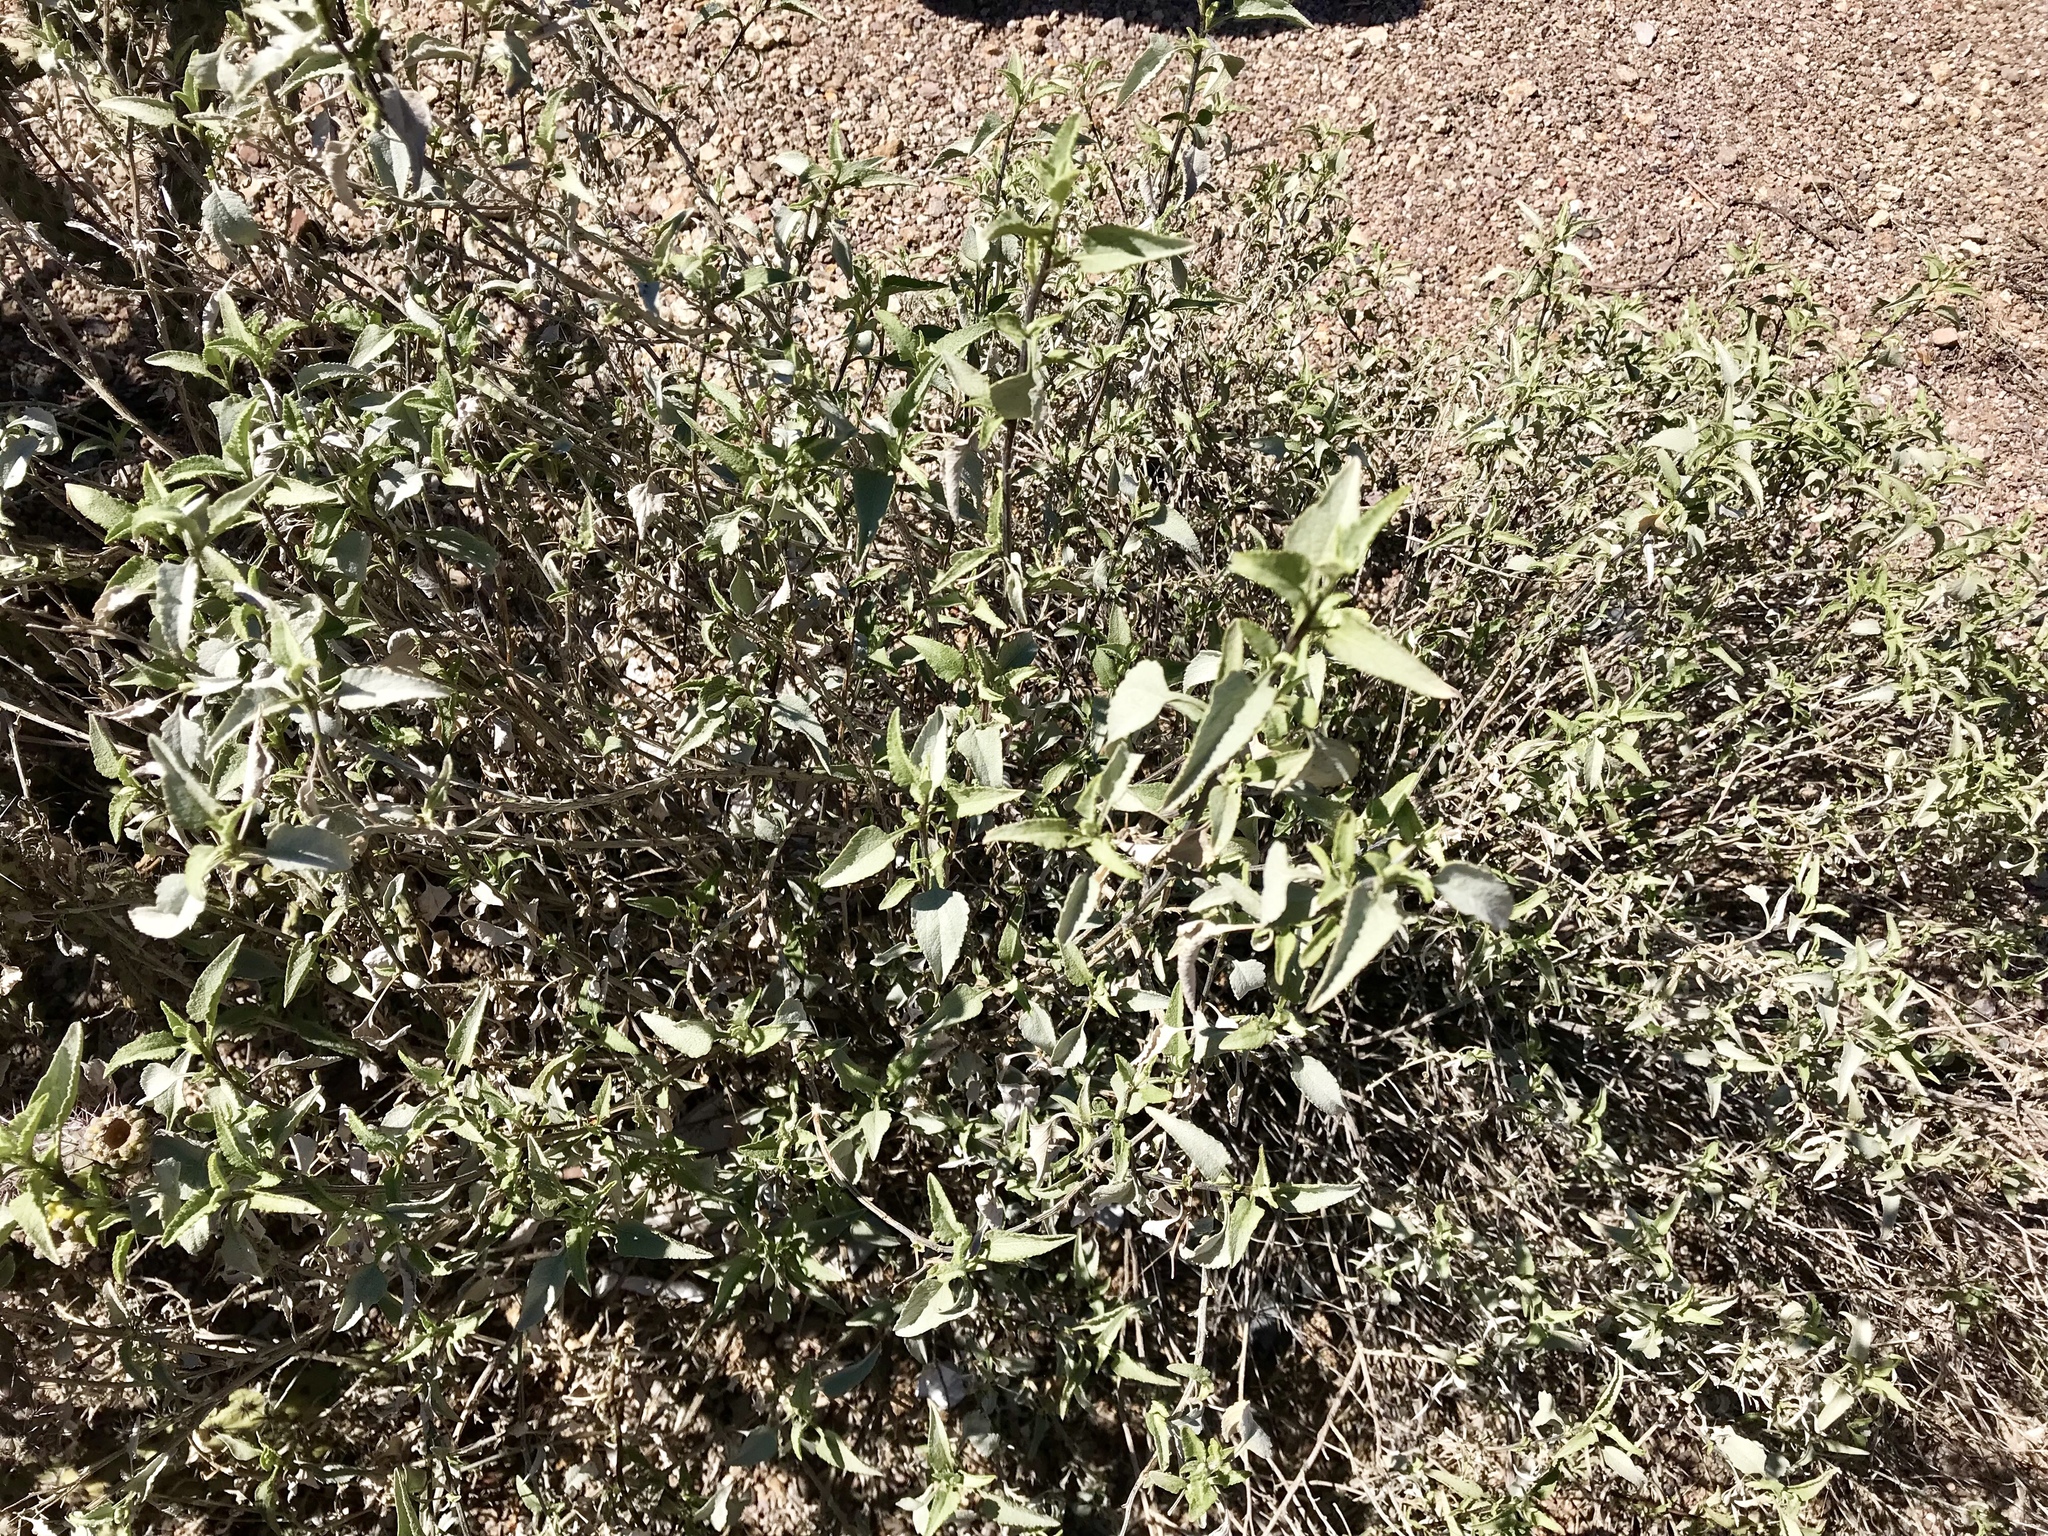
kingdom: Plantae
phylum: Tracheophyta
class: Magnoliopsida
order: Asterales
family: Asteraceae
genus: Ambrosia
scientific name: Ambrosia deltoidea
